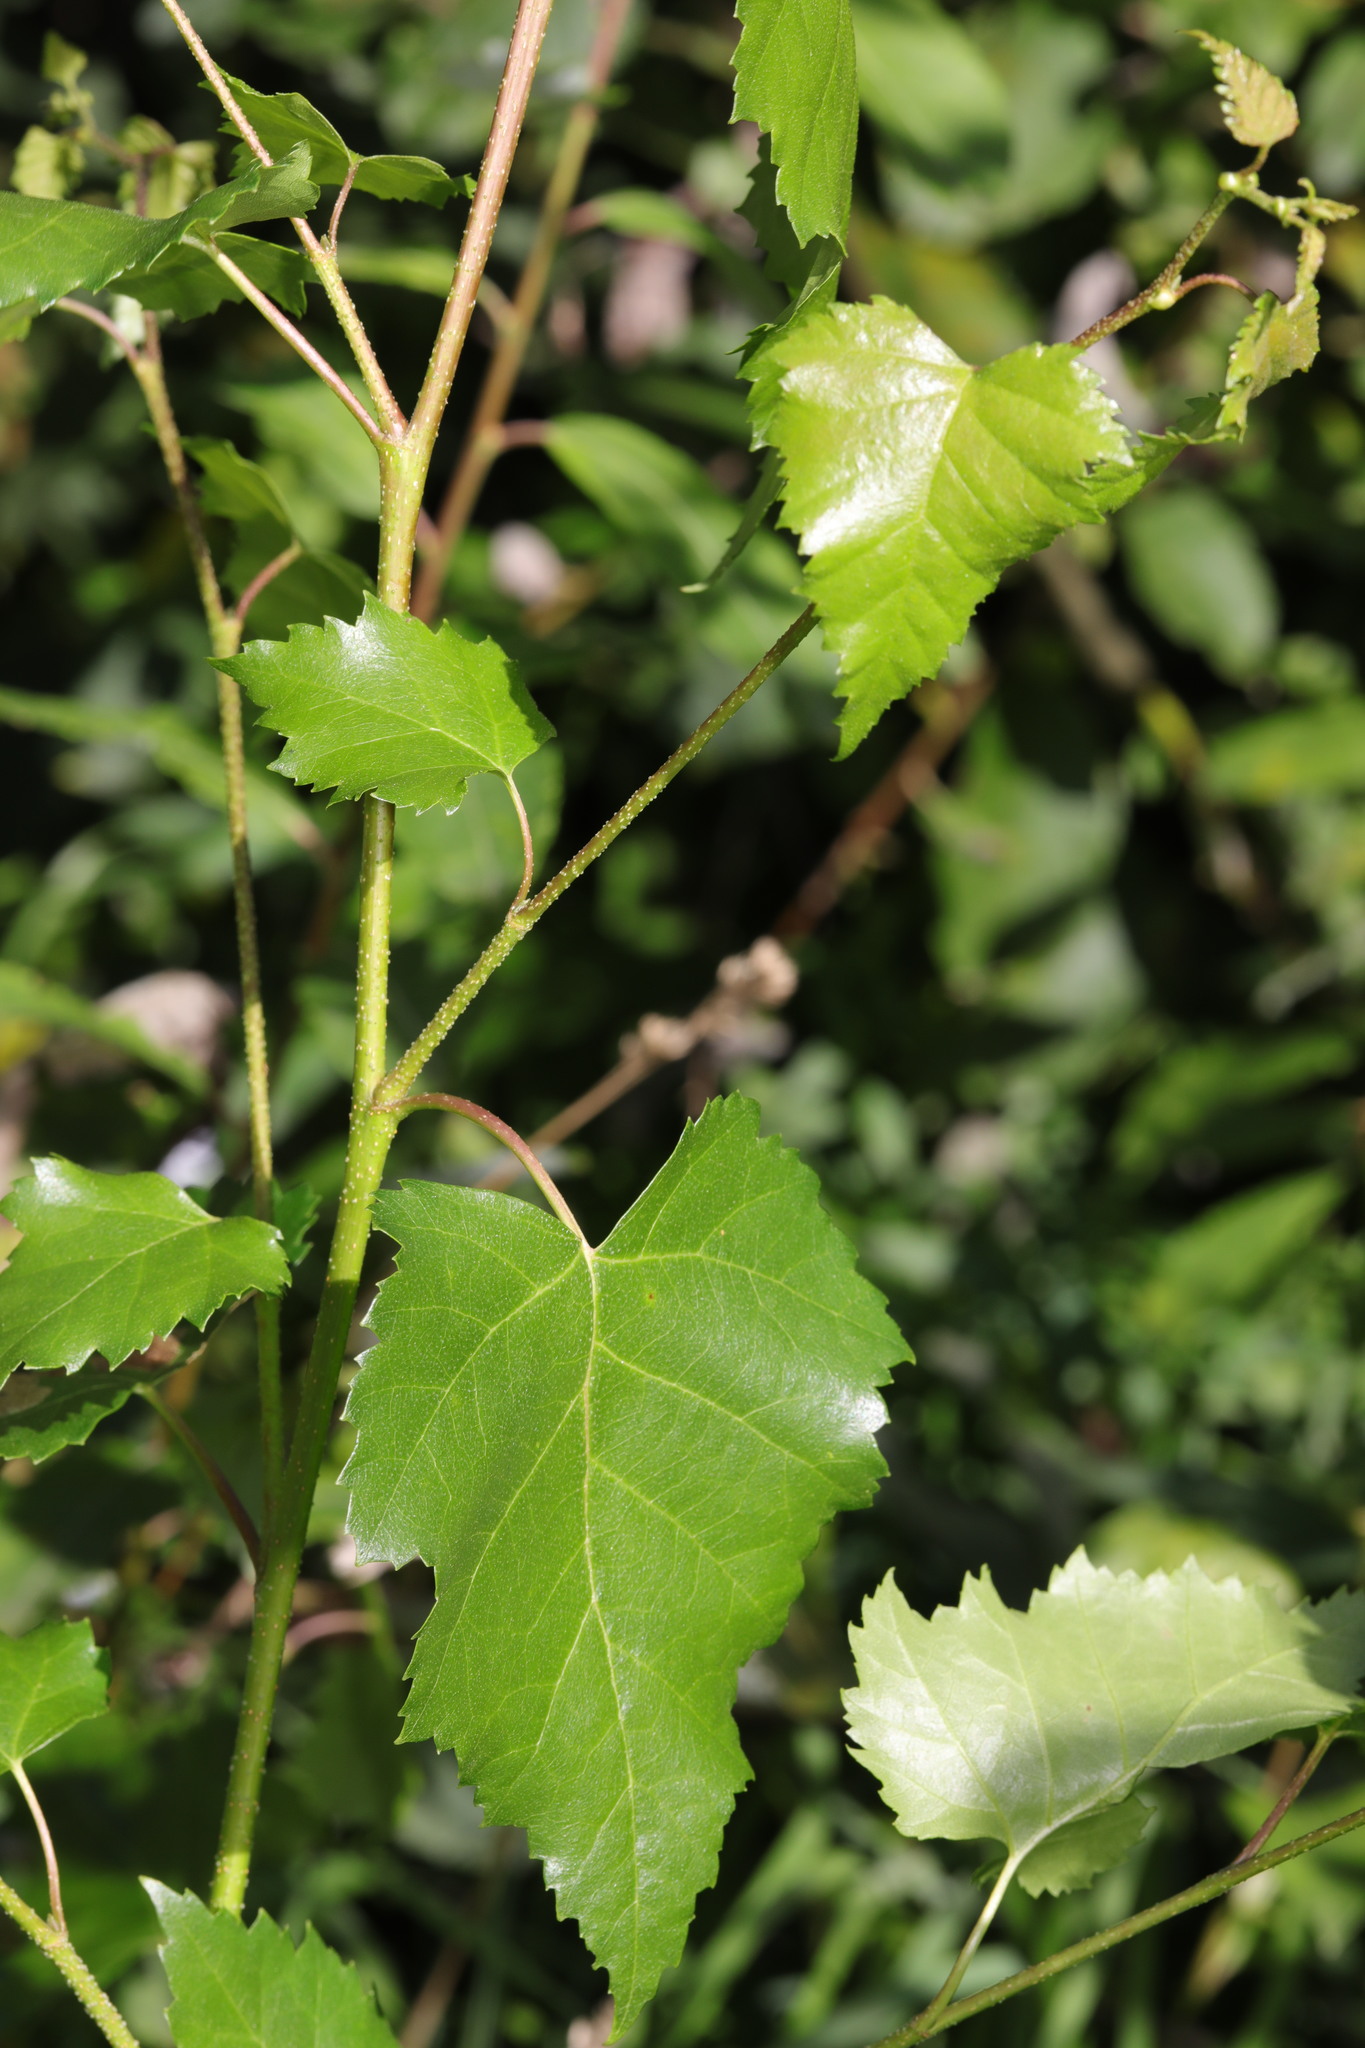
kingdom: Plantae
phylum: Tracheophyta
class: Magnoliopsida
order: Fagales
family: Betulaceae
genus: Betula
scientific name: Betula pendula
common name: Silver birch
